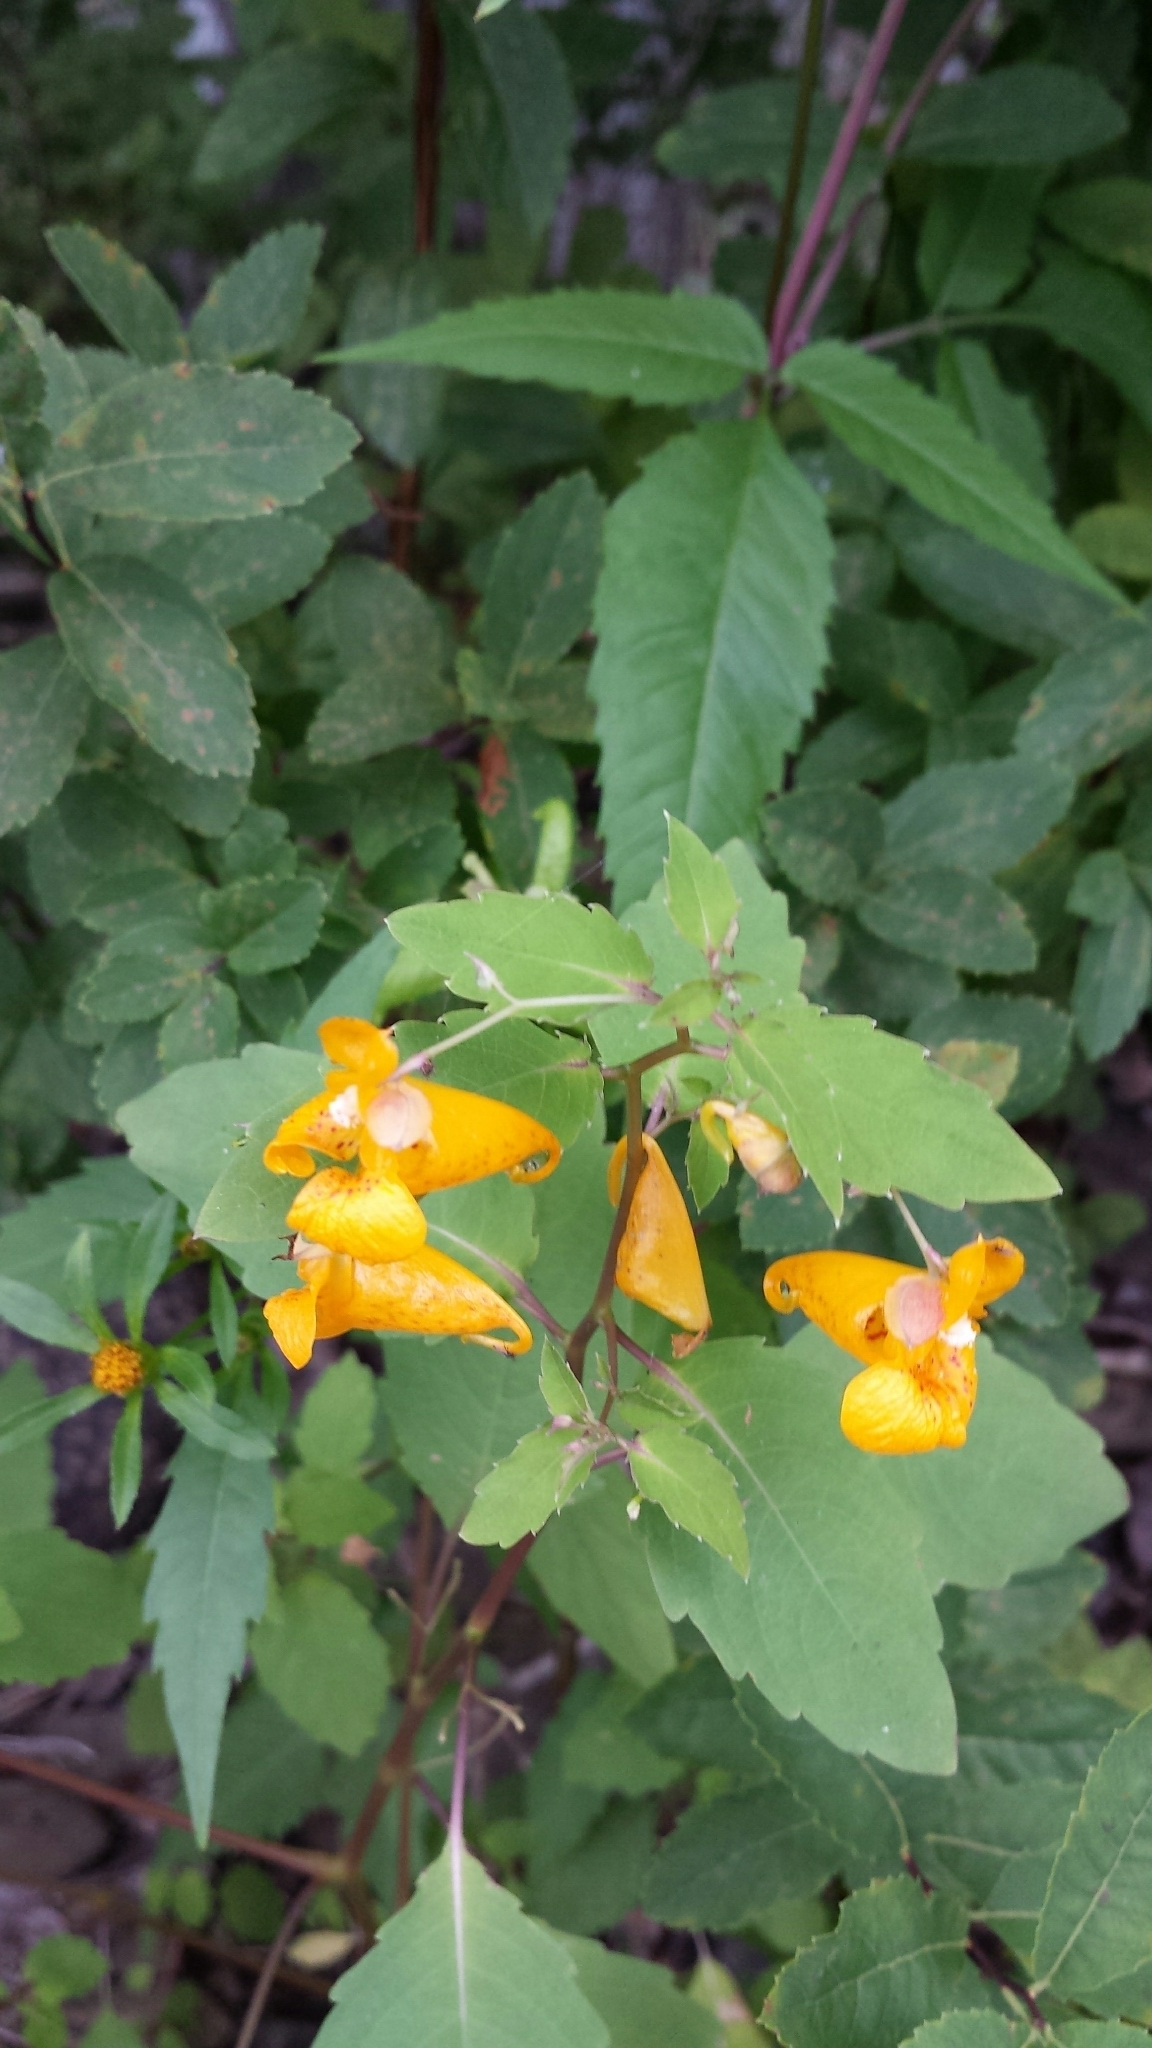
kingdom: Plantae
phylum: Tracheophyta
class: Magnoliopsida
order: Ericales
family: Balsaminaceae
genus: Impatiens
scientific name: Impatiens capensis
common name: Orange balsam
